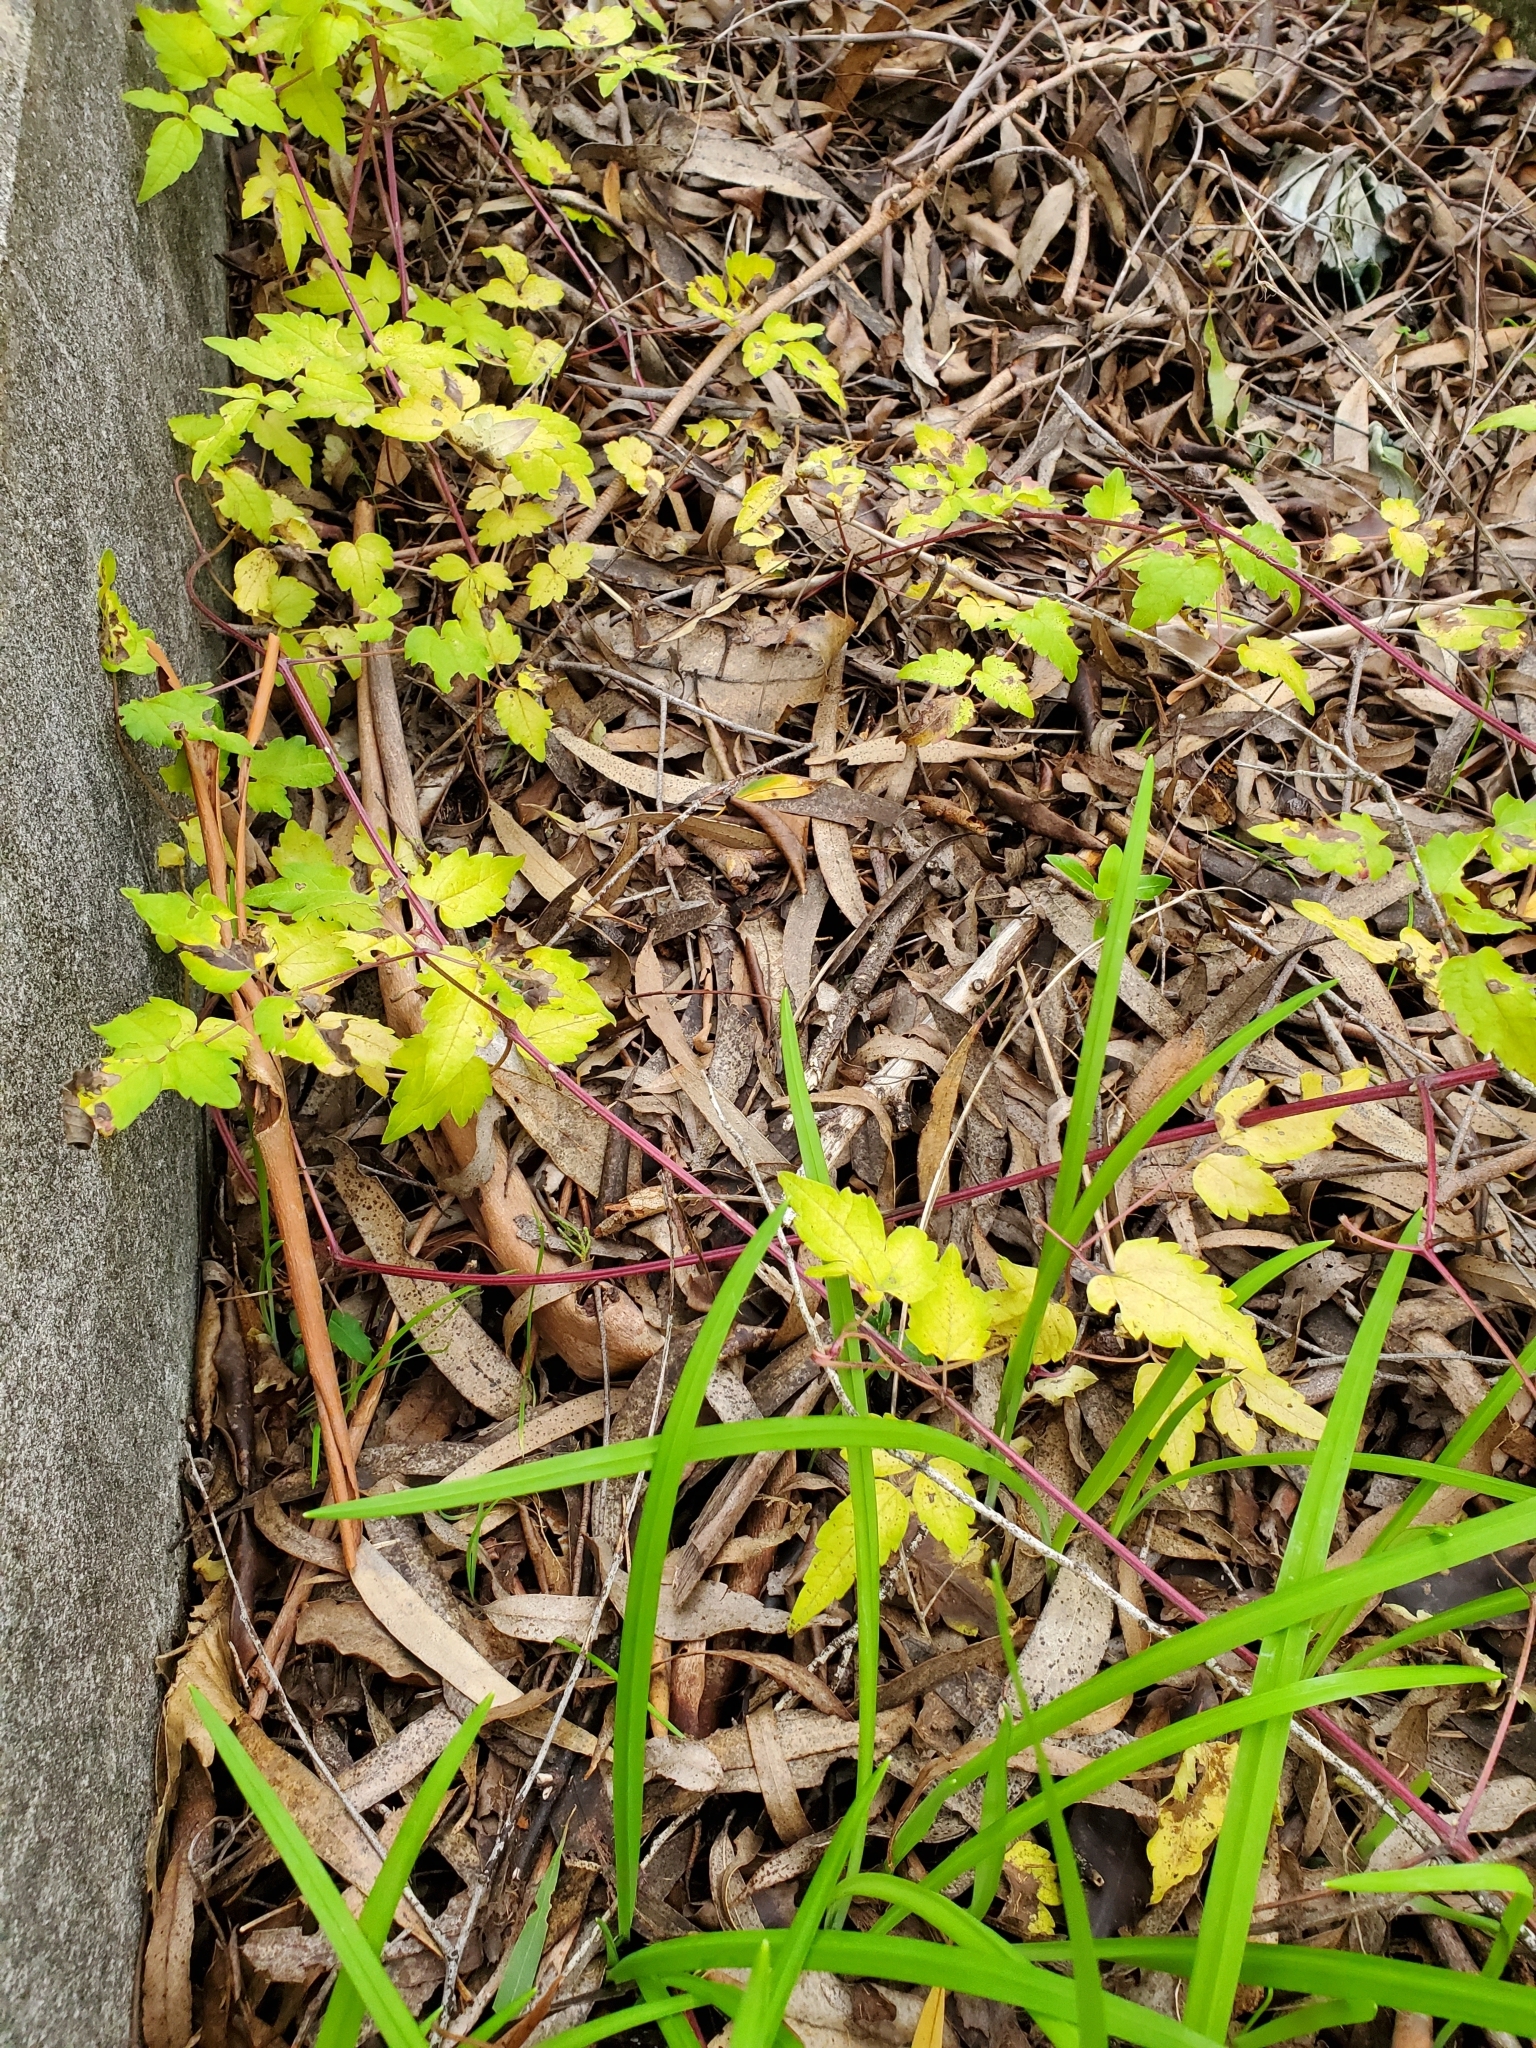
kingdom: Plantae
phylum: Tracheophyta
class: Magnoliopsida
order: Ranunculales
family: Ranunculaceae
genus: Clematis
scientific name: Clematis vitalba
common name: Evergreen clematis
